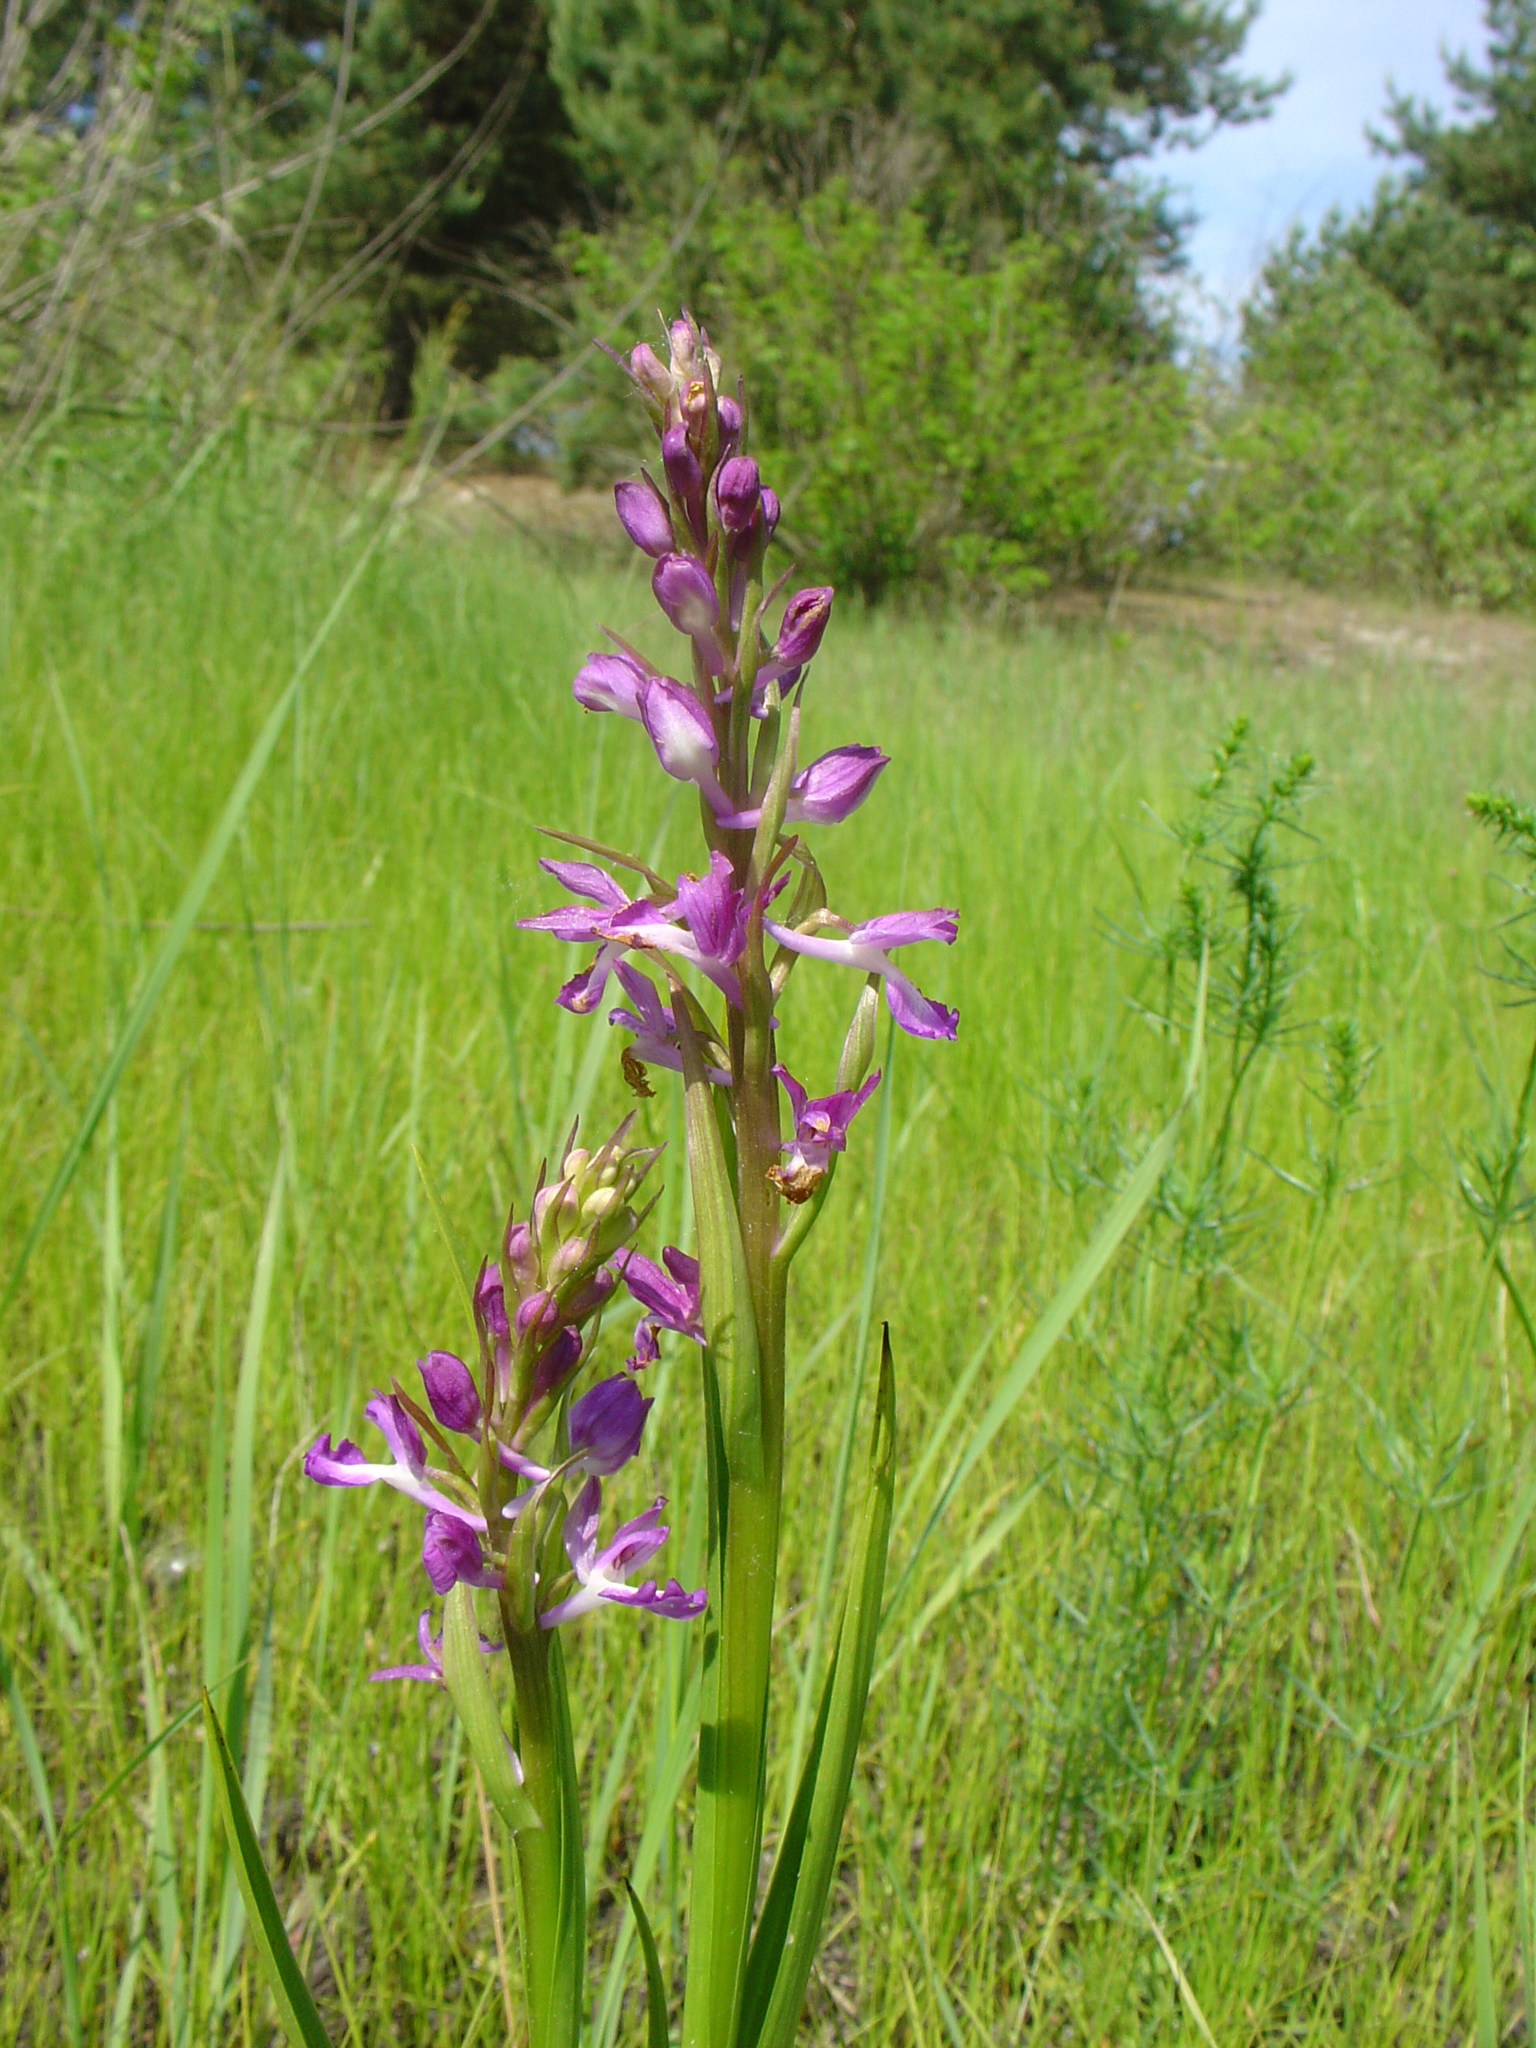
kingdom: Plantae
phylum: Tracheophyta
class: Liliopsida
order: Asparagales
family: Orchidaceae
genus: Anacamptis
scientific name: Anacamptis laxiflora
